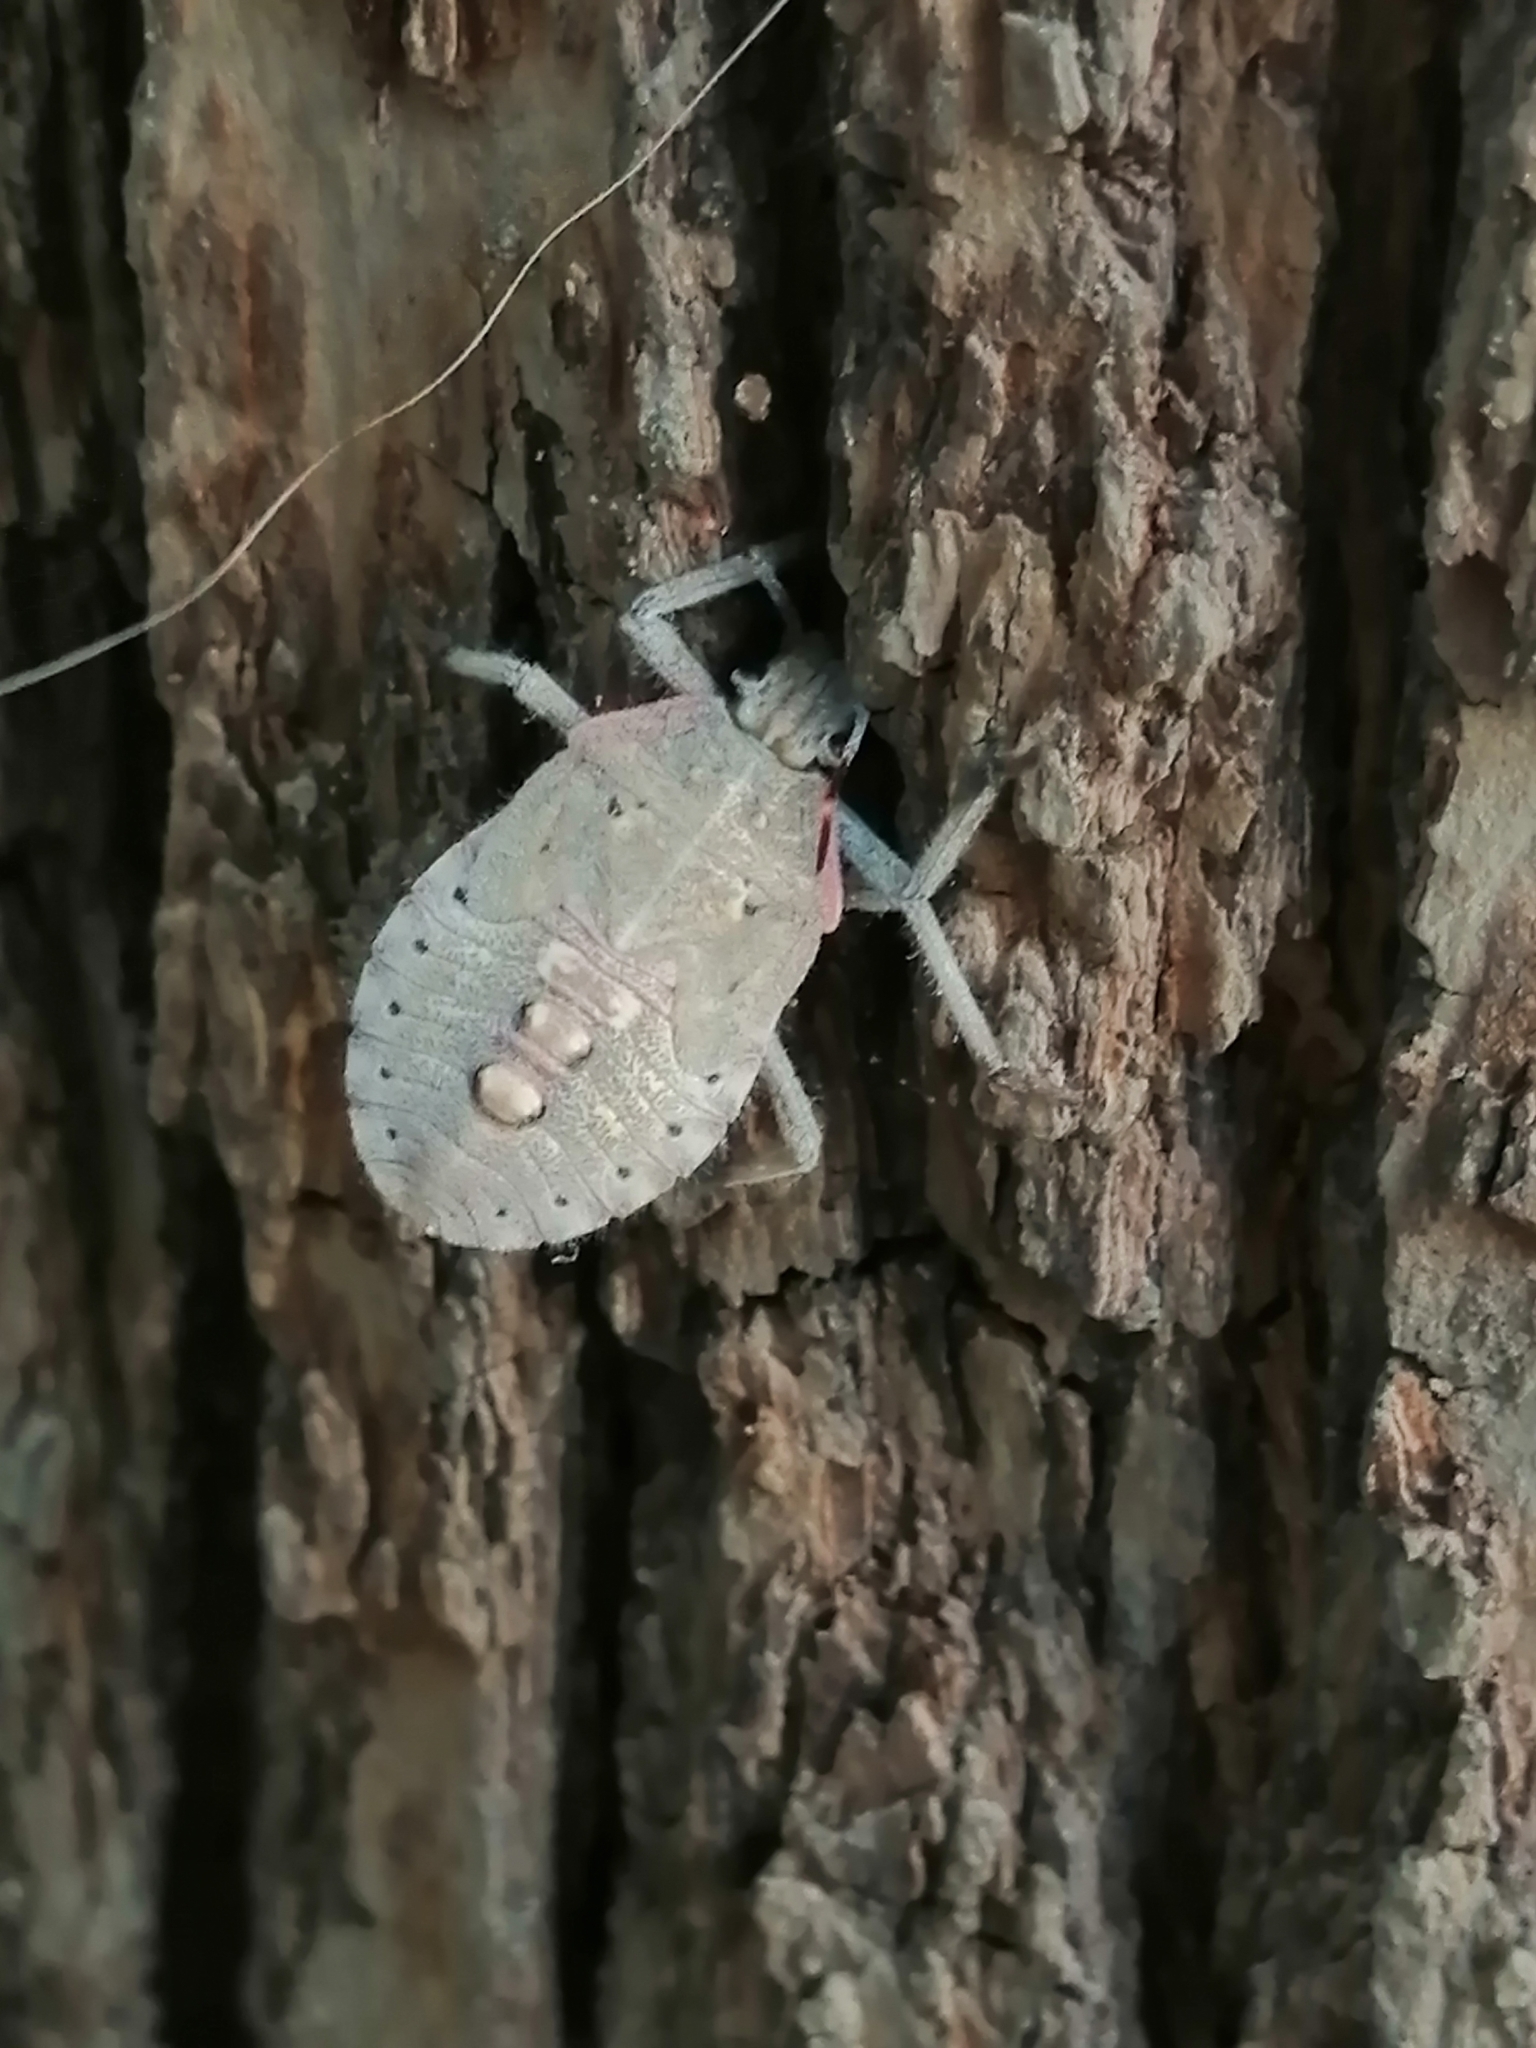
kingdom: Animalia
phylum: Arthropoda
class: Insecta
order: Hemiptera
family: Pentatomidae
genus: Apodiphus
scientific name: Apodiphus amygdali
